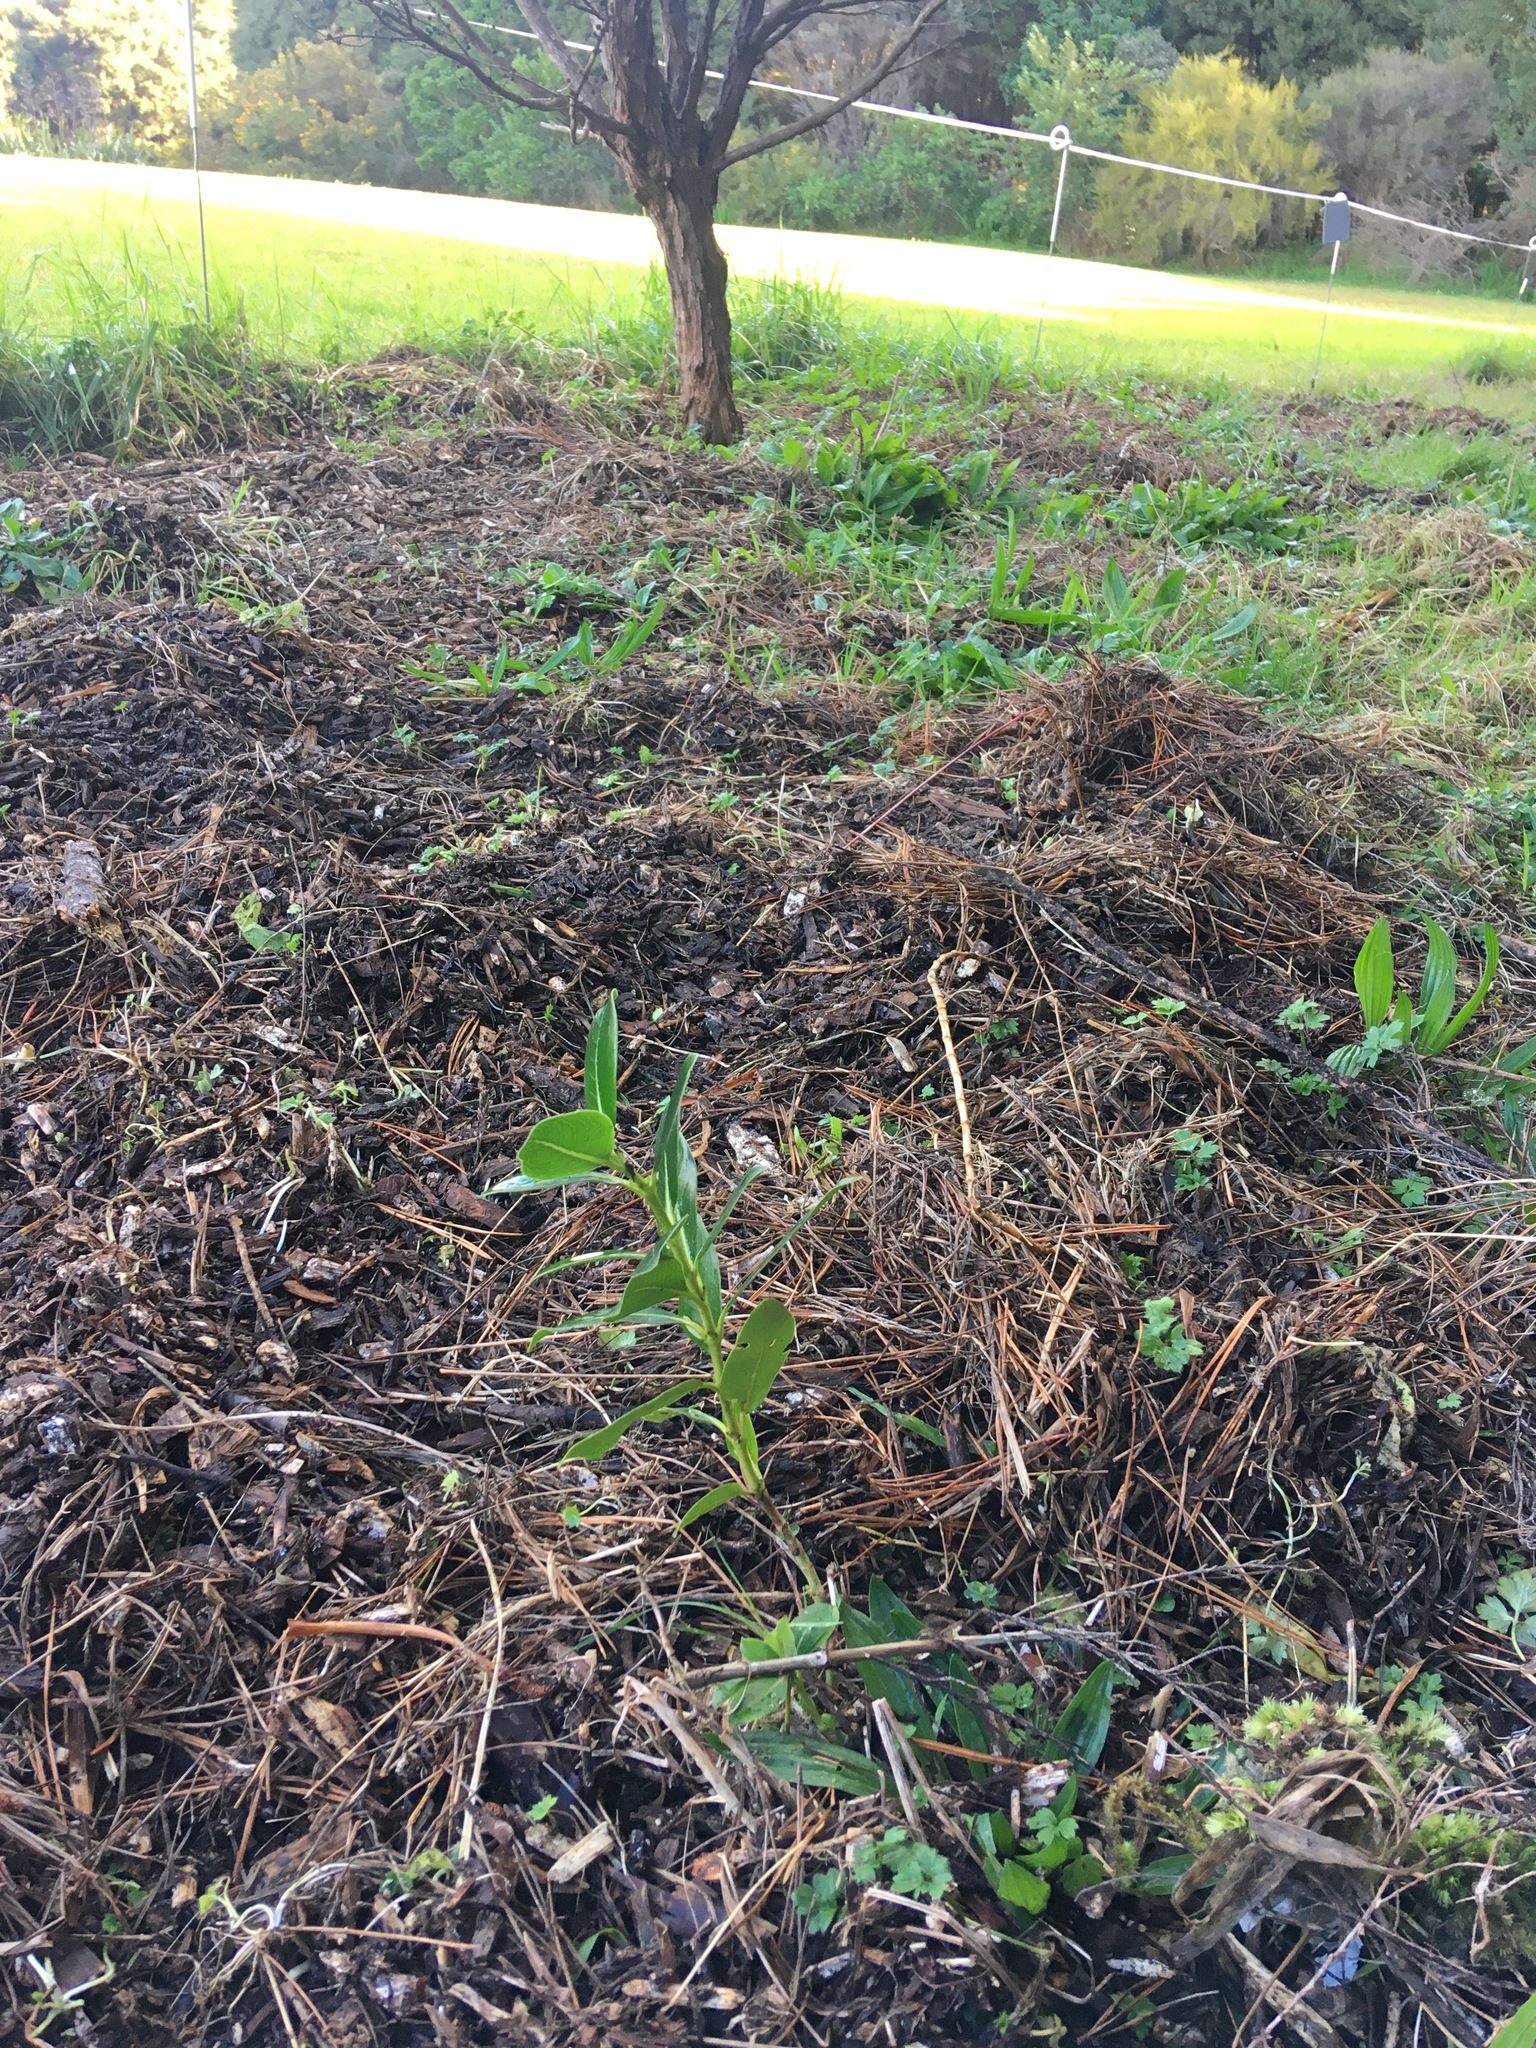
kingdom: Plantae
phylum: Tracheophyta
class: Magnoliopsida
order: Gentianales
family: Rubiaceae
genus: Coprosma
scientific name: Coprosma robusta
